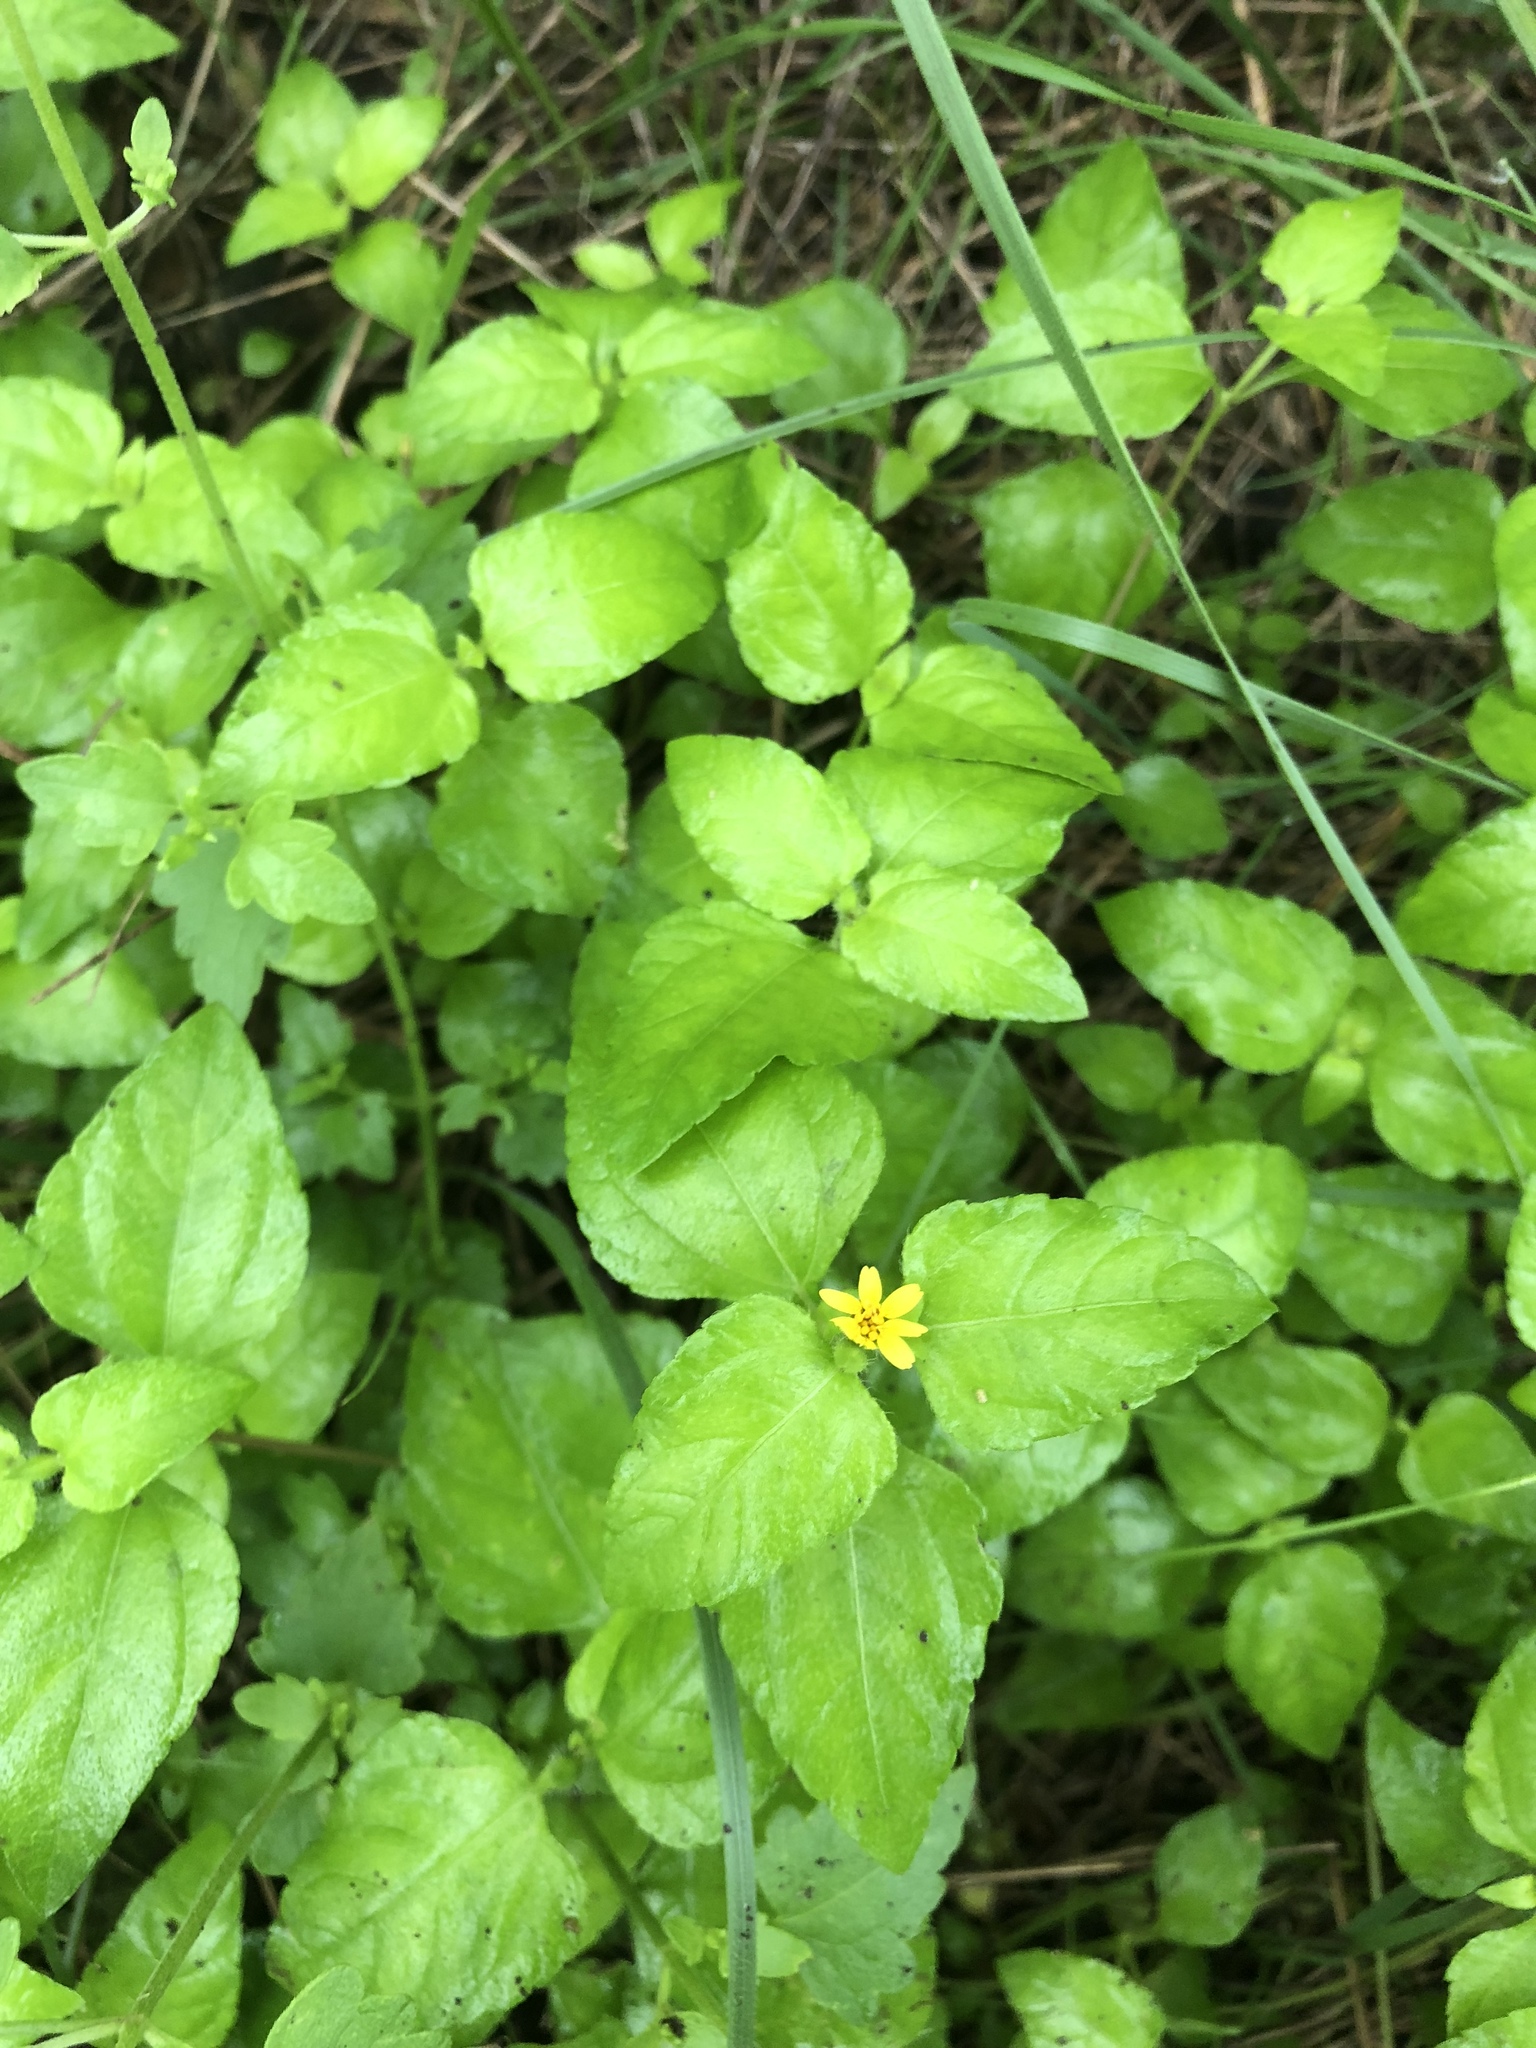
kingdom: Plantae
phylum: Tracheophyta
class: Magnoliopsida
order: Asterales
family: Asteraceae
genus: Calyptocarpus
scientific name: Calyptocarpus vialis
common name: Straggler daisy
